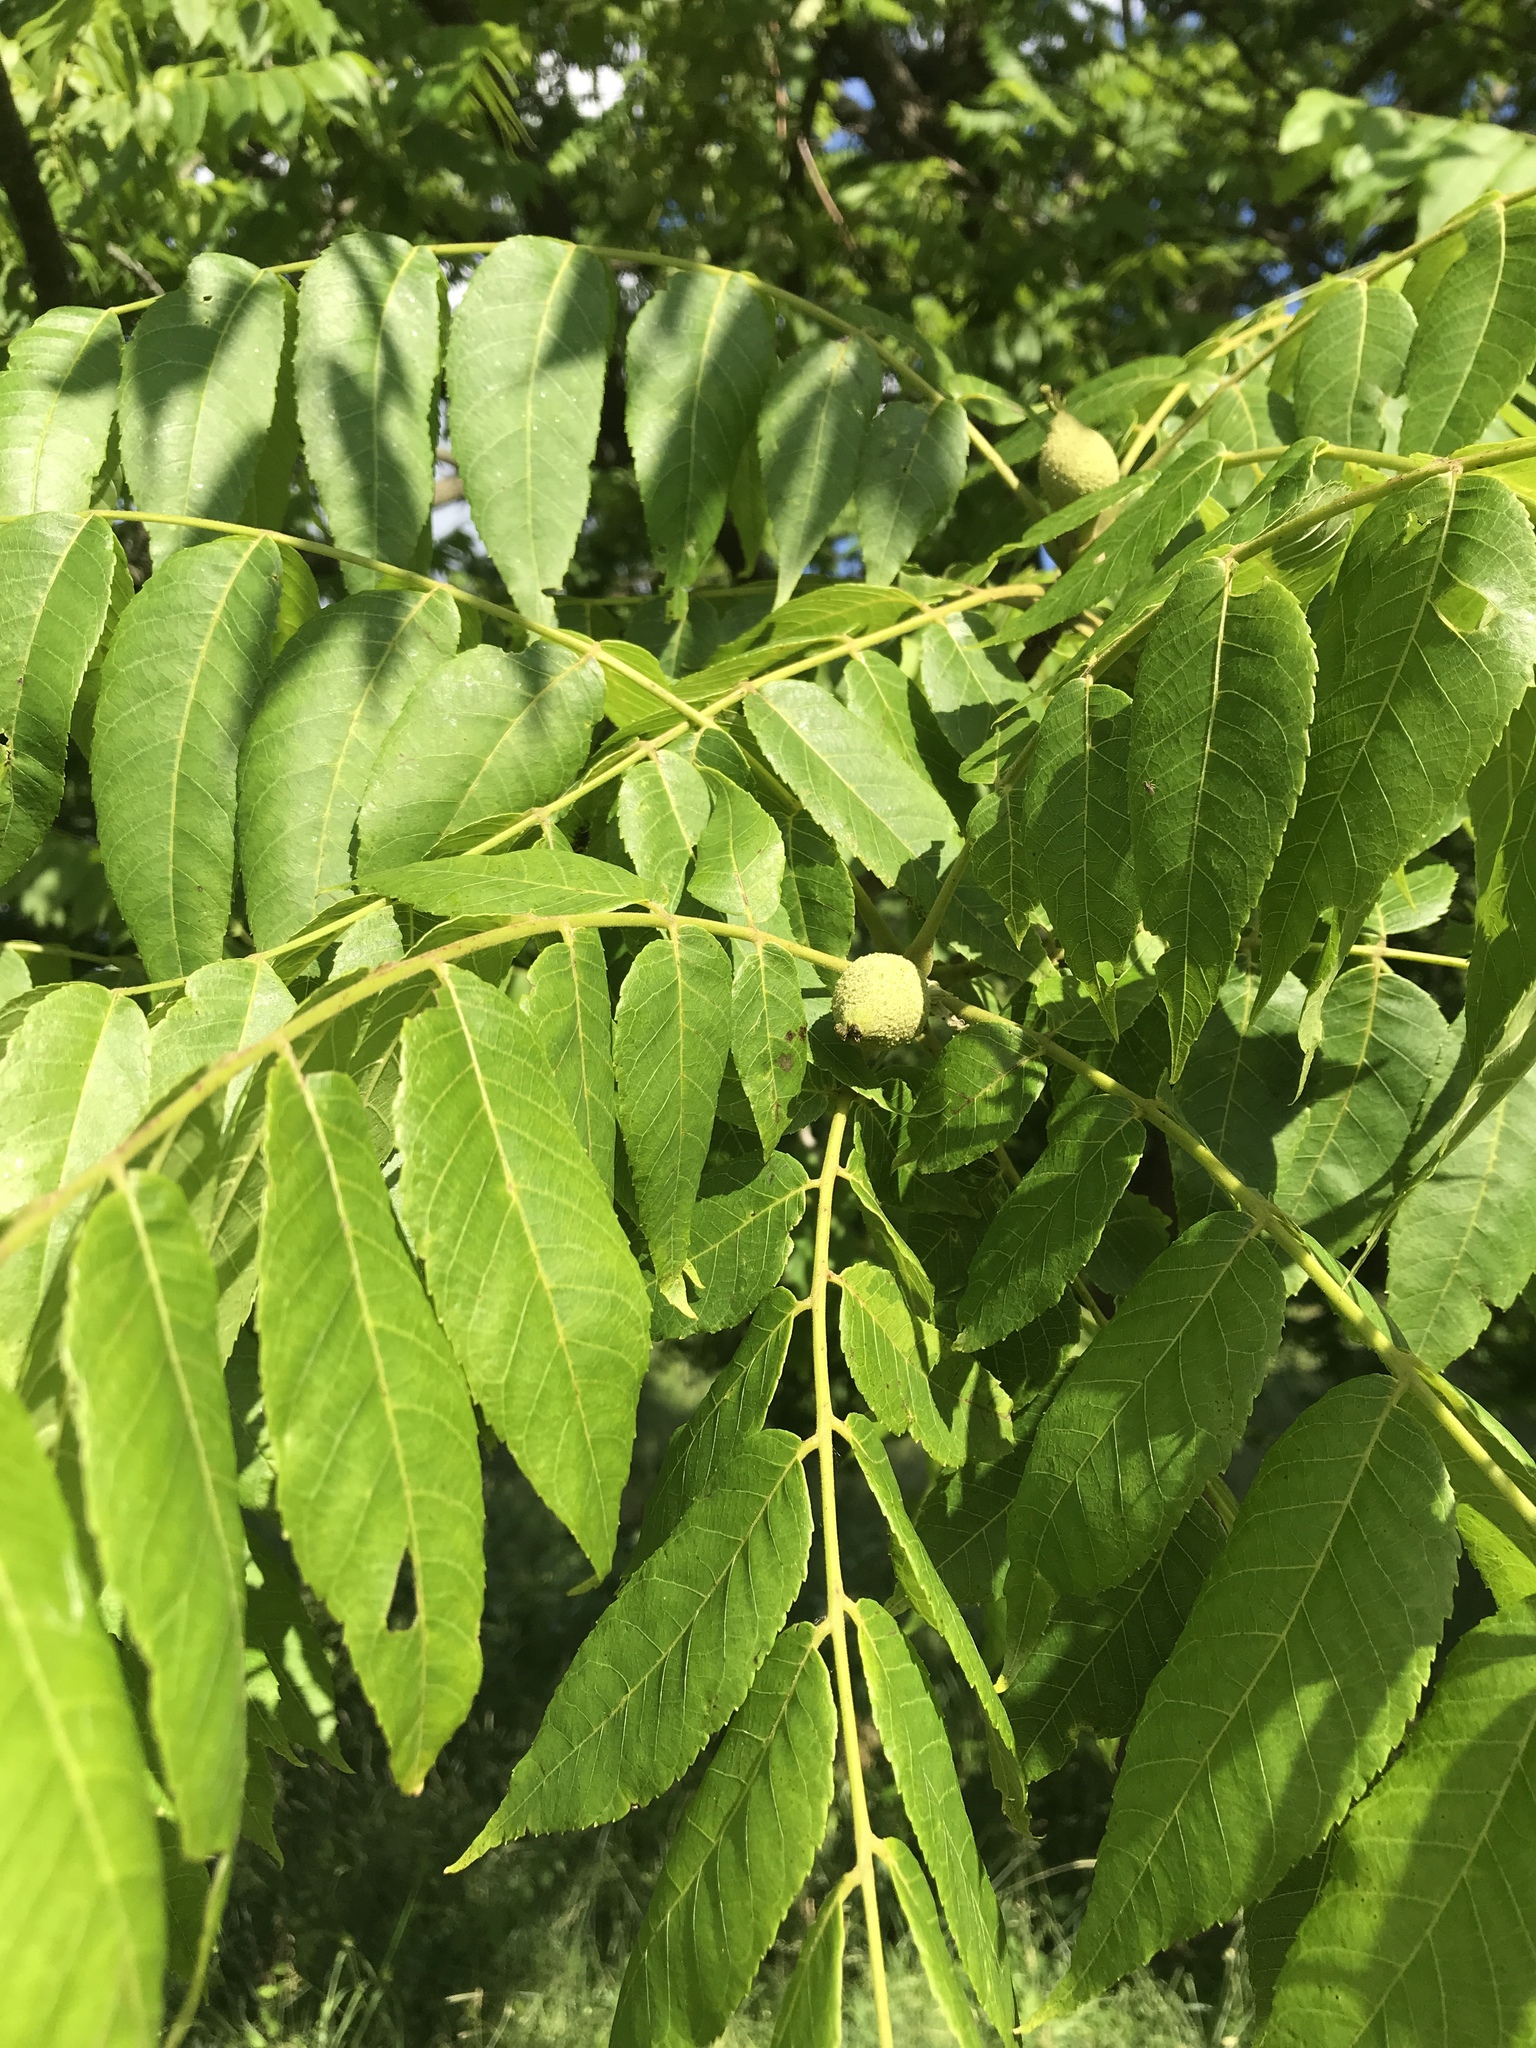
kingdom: Plantae
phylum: Tracheophyta
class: Magnoliopsida
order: Fagales
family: Juglandaceae
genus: Juglans
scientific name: Juglans nigra
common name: Black walnut
